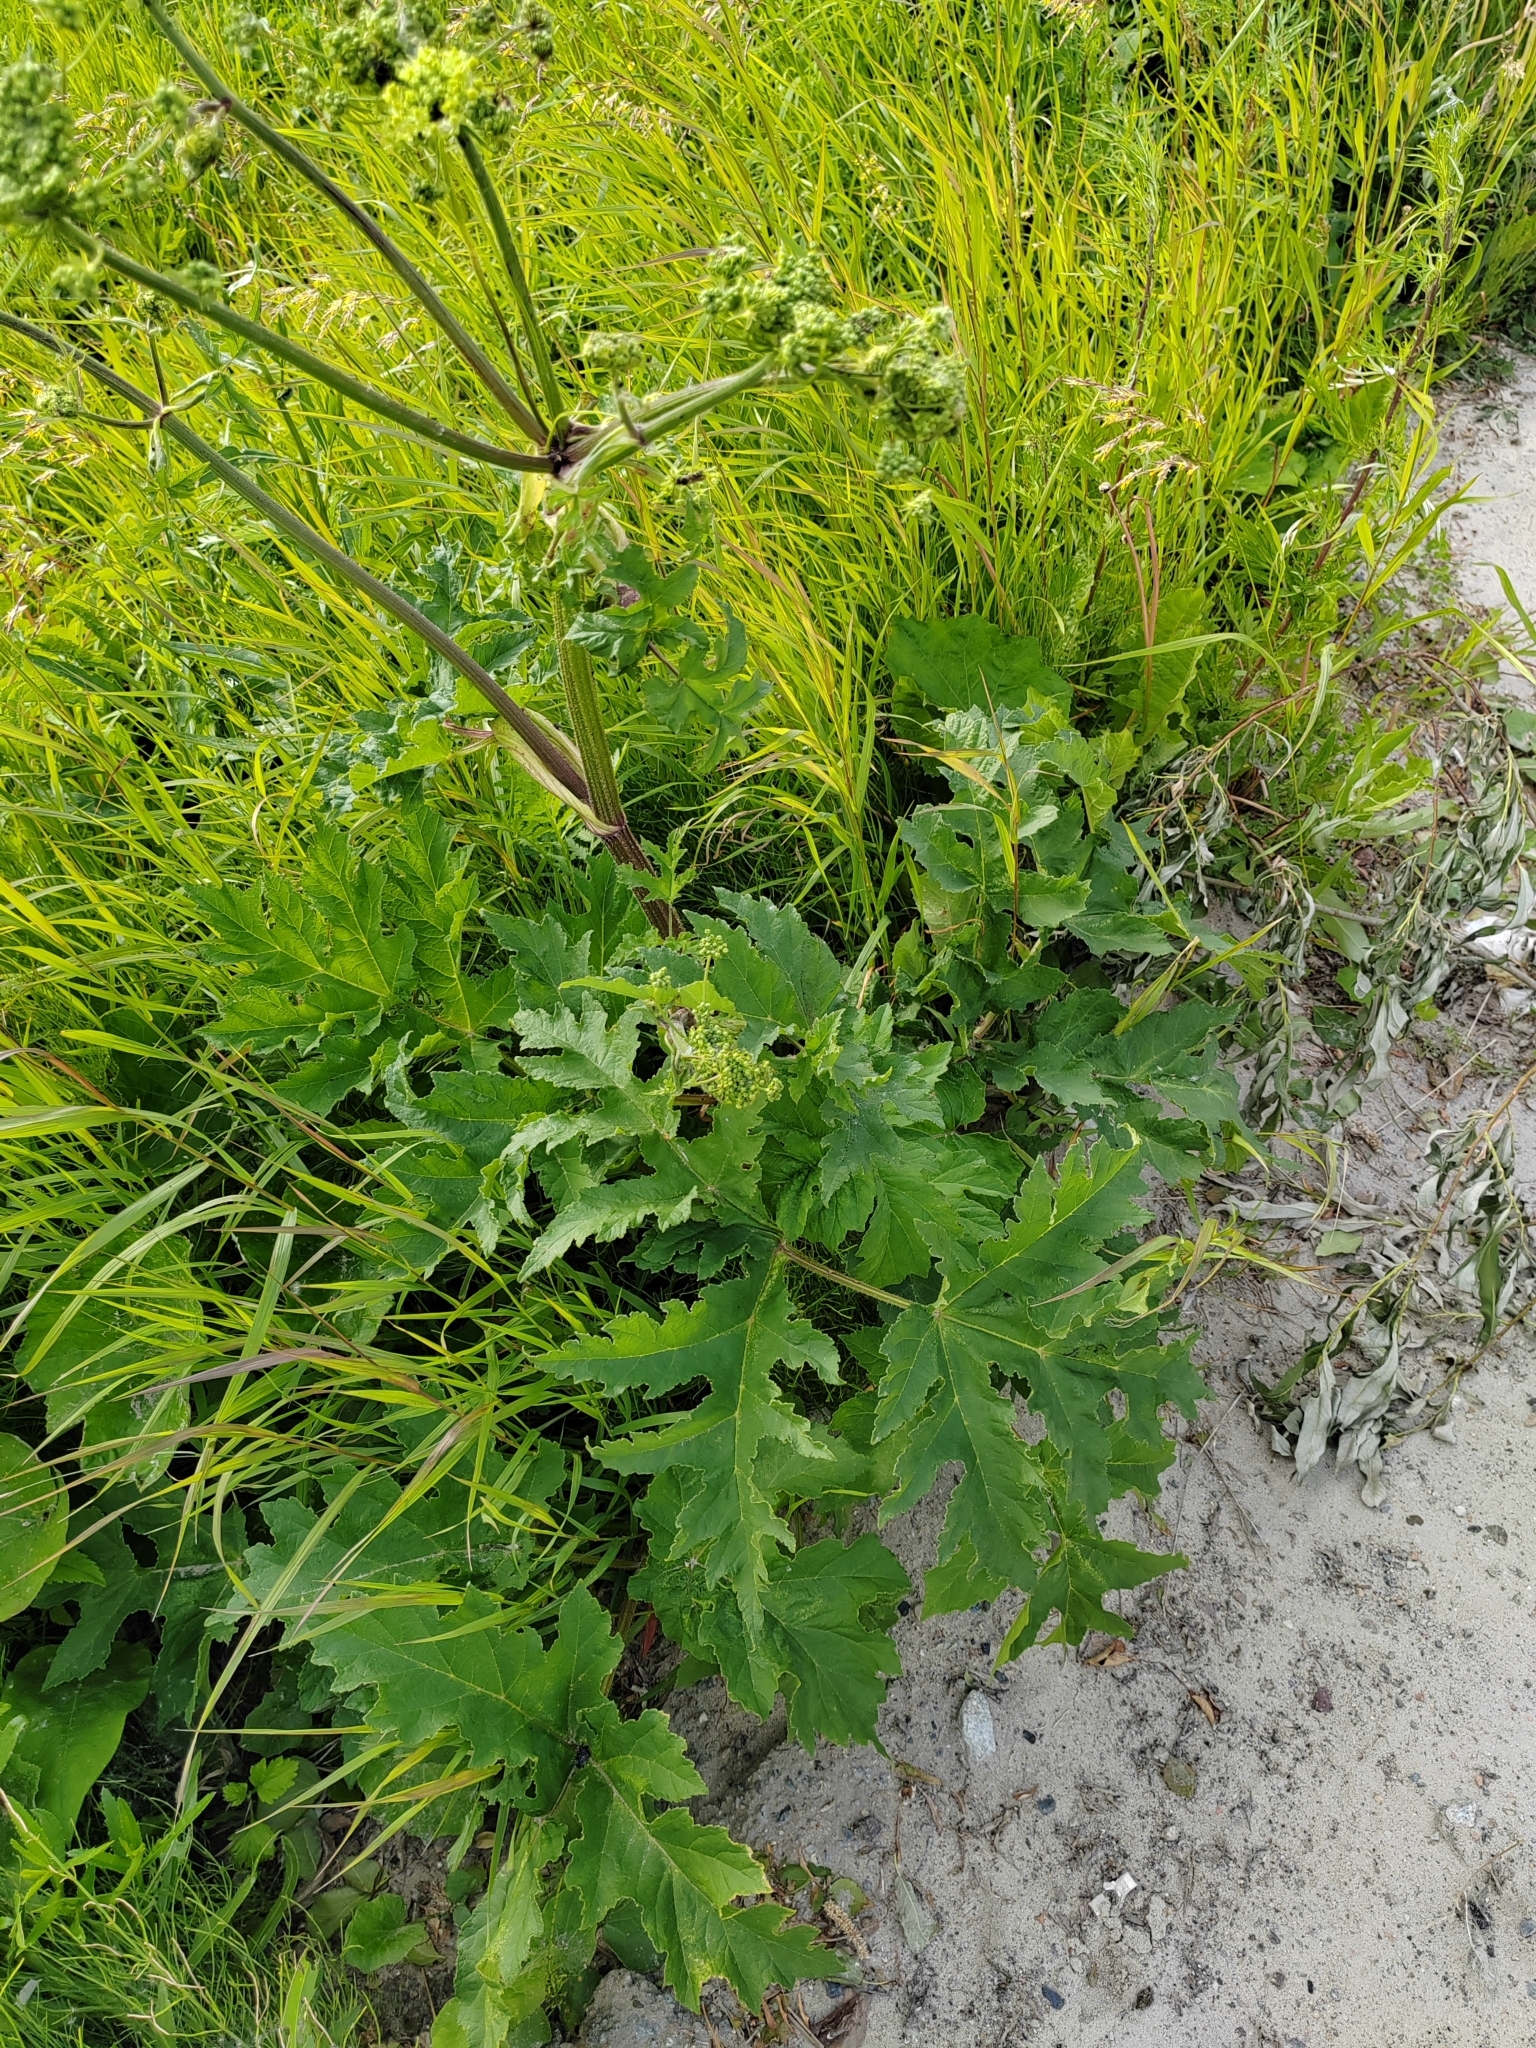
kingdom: Plantae
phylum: Tracheophyta
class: Magnoliopsida
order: Apiales
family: Apiaceae
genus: Heracleum
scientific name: Heracleum sphondylium
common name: Hogweed
